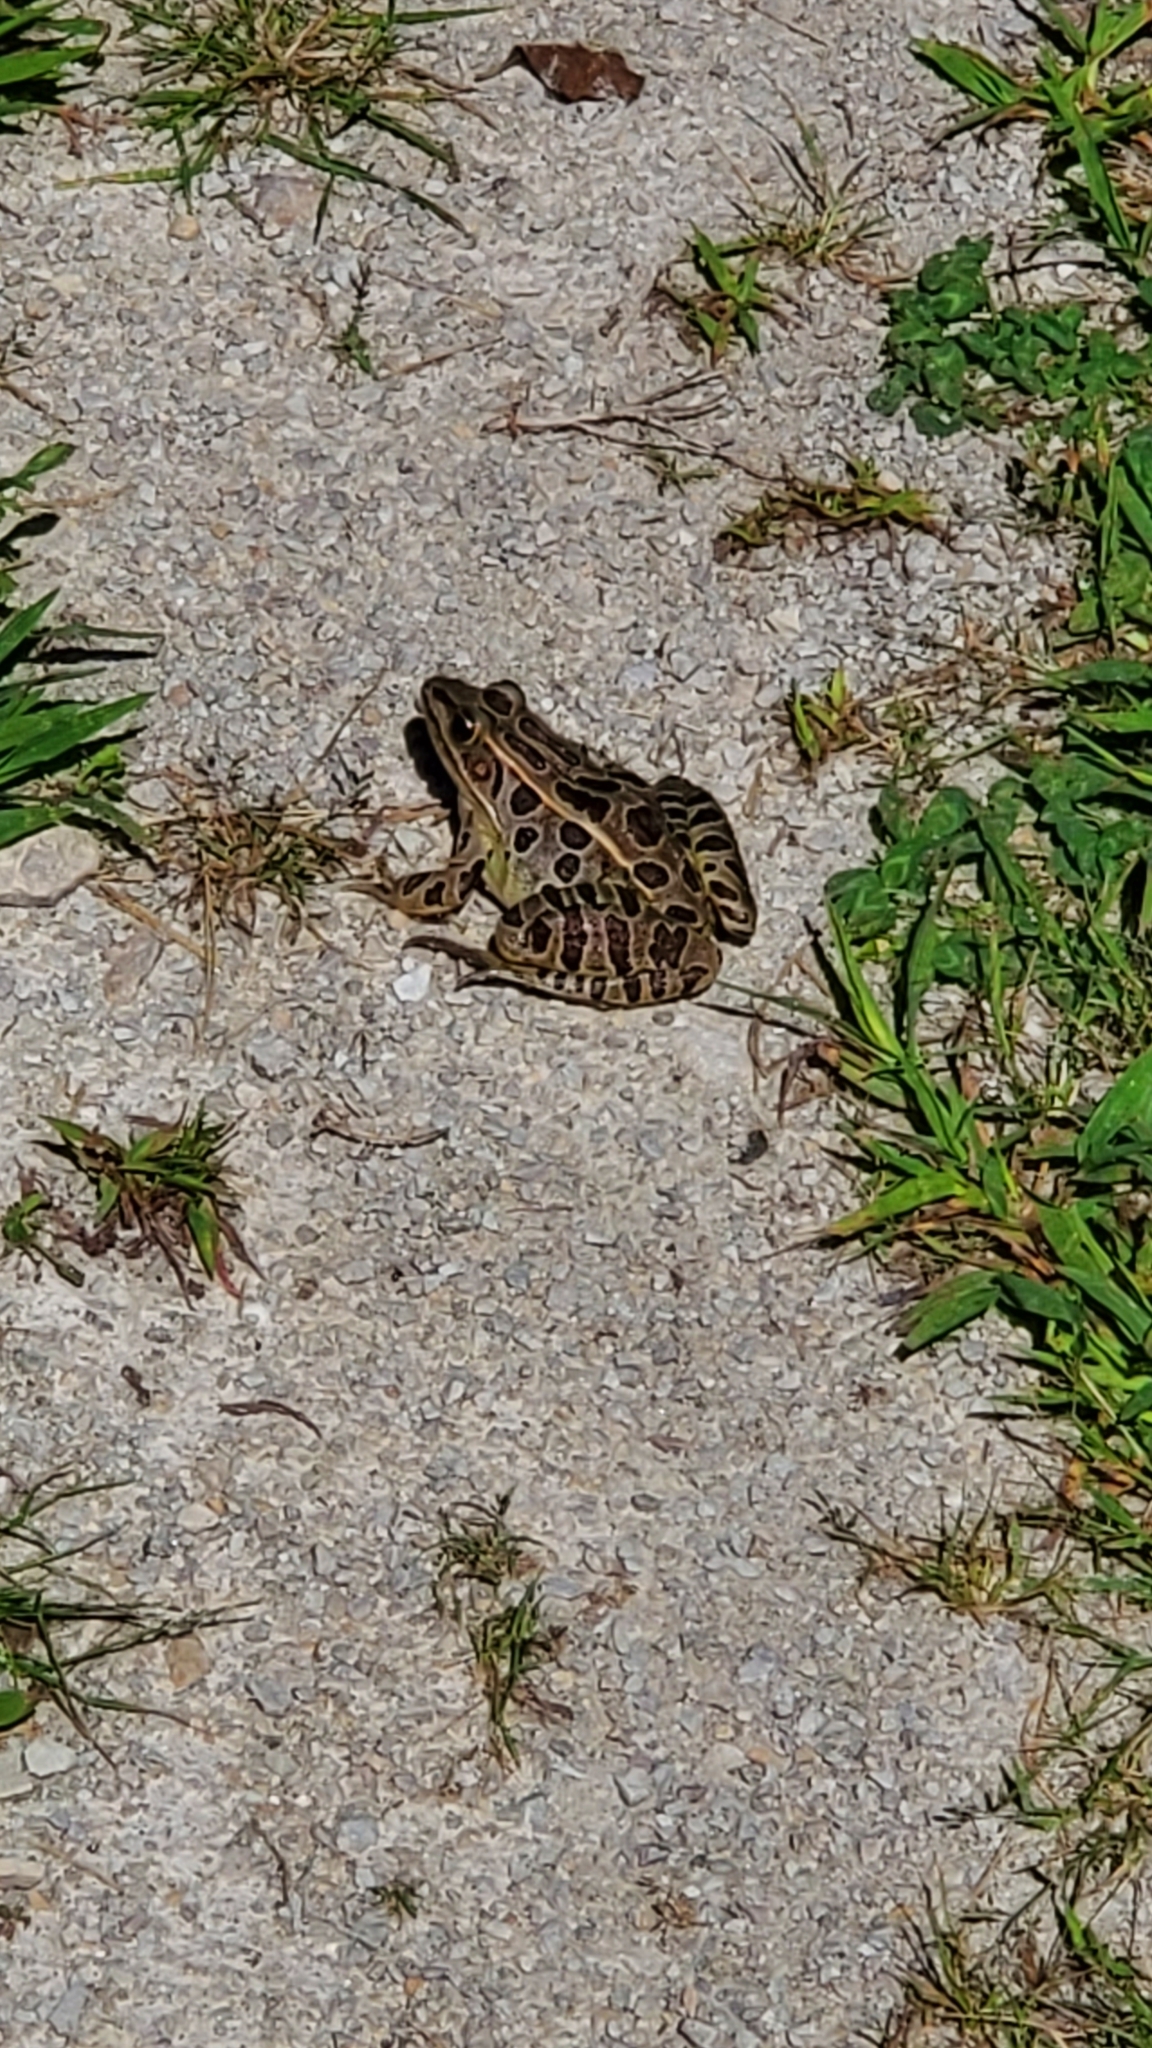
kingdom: Animalia
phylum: Chordata
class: Amphibia
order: Anura
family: Ranidae
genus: Lithobates
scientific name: Lithobates pipiens
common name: Northern leopard frog
